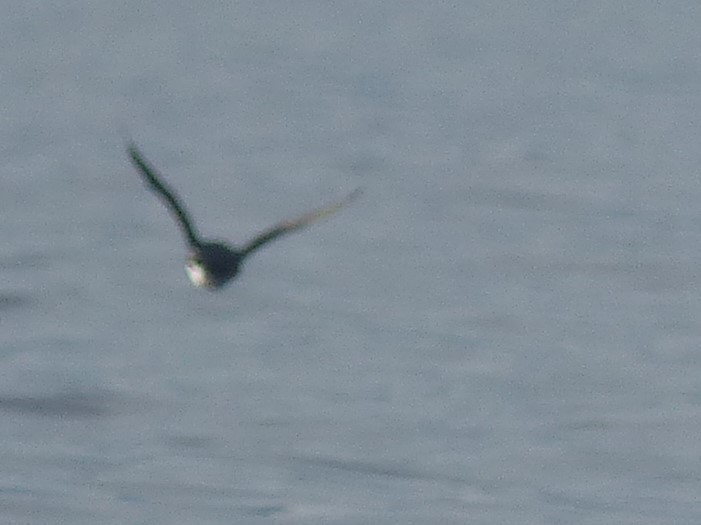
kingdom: Animalia
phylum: Chordata
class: Aves
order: Charadriiformes
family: Alcidae
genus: Ptychoramphus
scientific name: Ptychoramphus aleuticus
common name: Cassin's auklet
